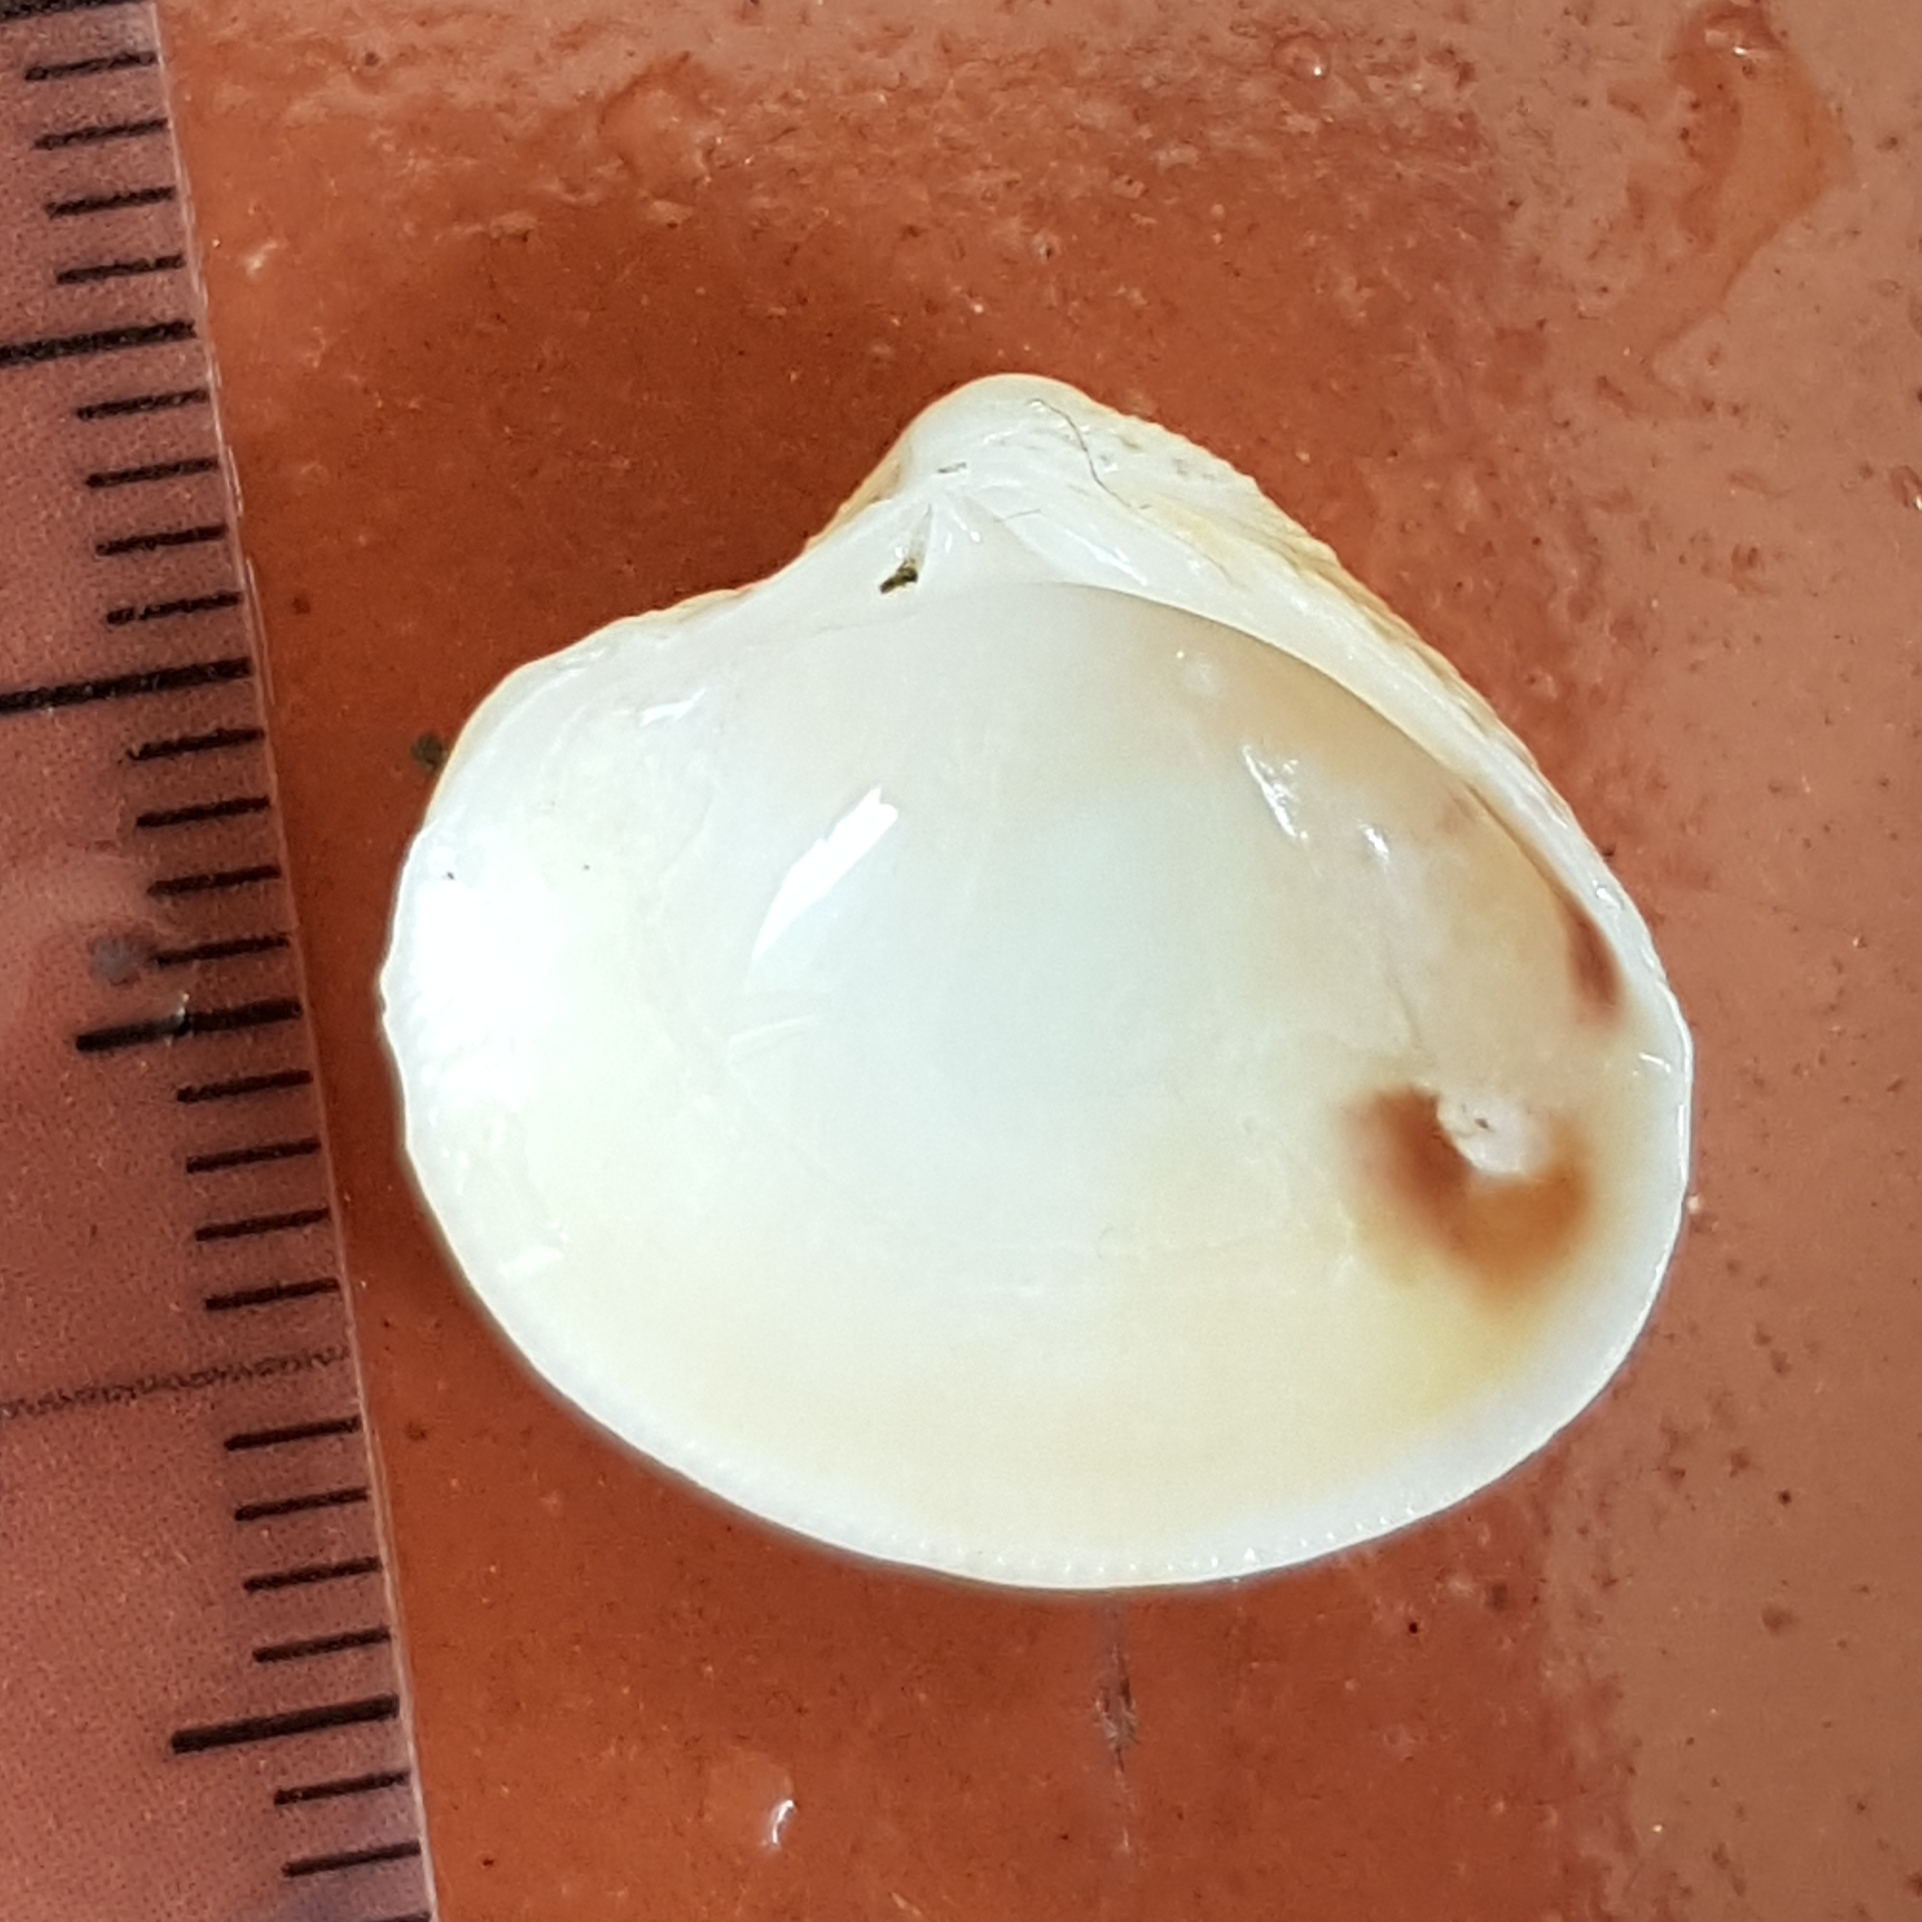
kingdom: Animalia
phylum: Mollusca
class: Bivalvia
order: Venerida
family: Veneridae
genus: Chamelea
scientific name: Chamelea gallina
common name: Chicken venus
